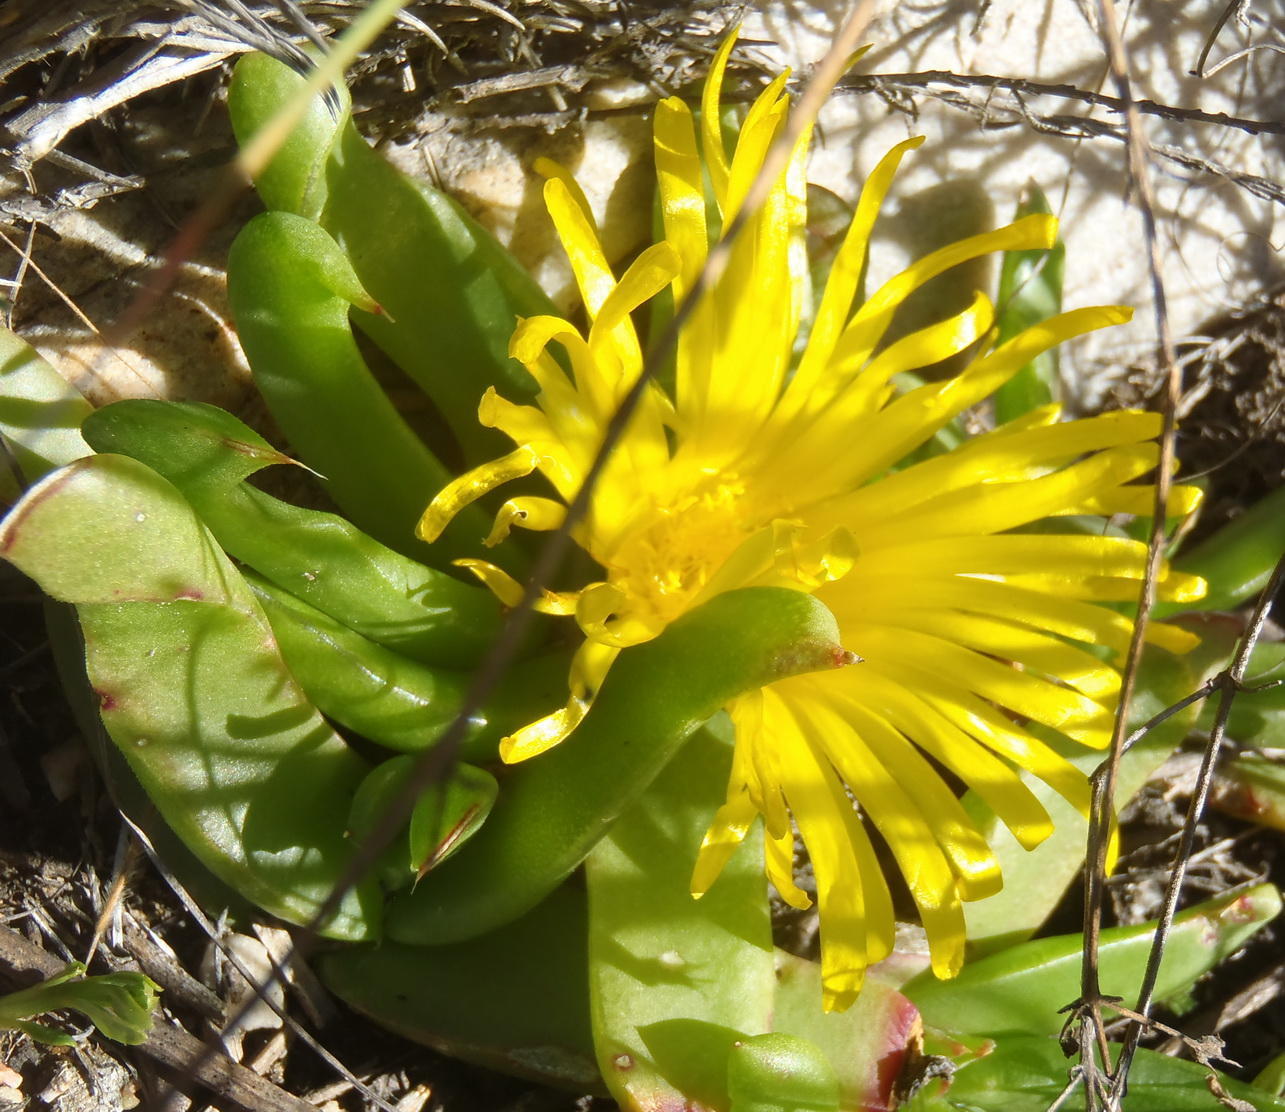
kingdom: Plantae
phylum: Tracheophyta
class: Magnoliopsida
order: Caryophyllales
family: Aizoaceae
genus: Glottiphyllum
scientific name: Glottiphyllum depressum
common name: Fig-marigold
